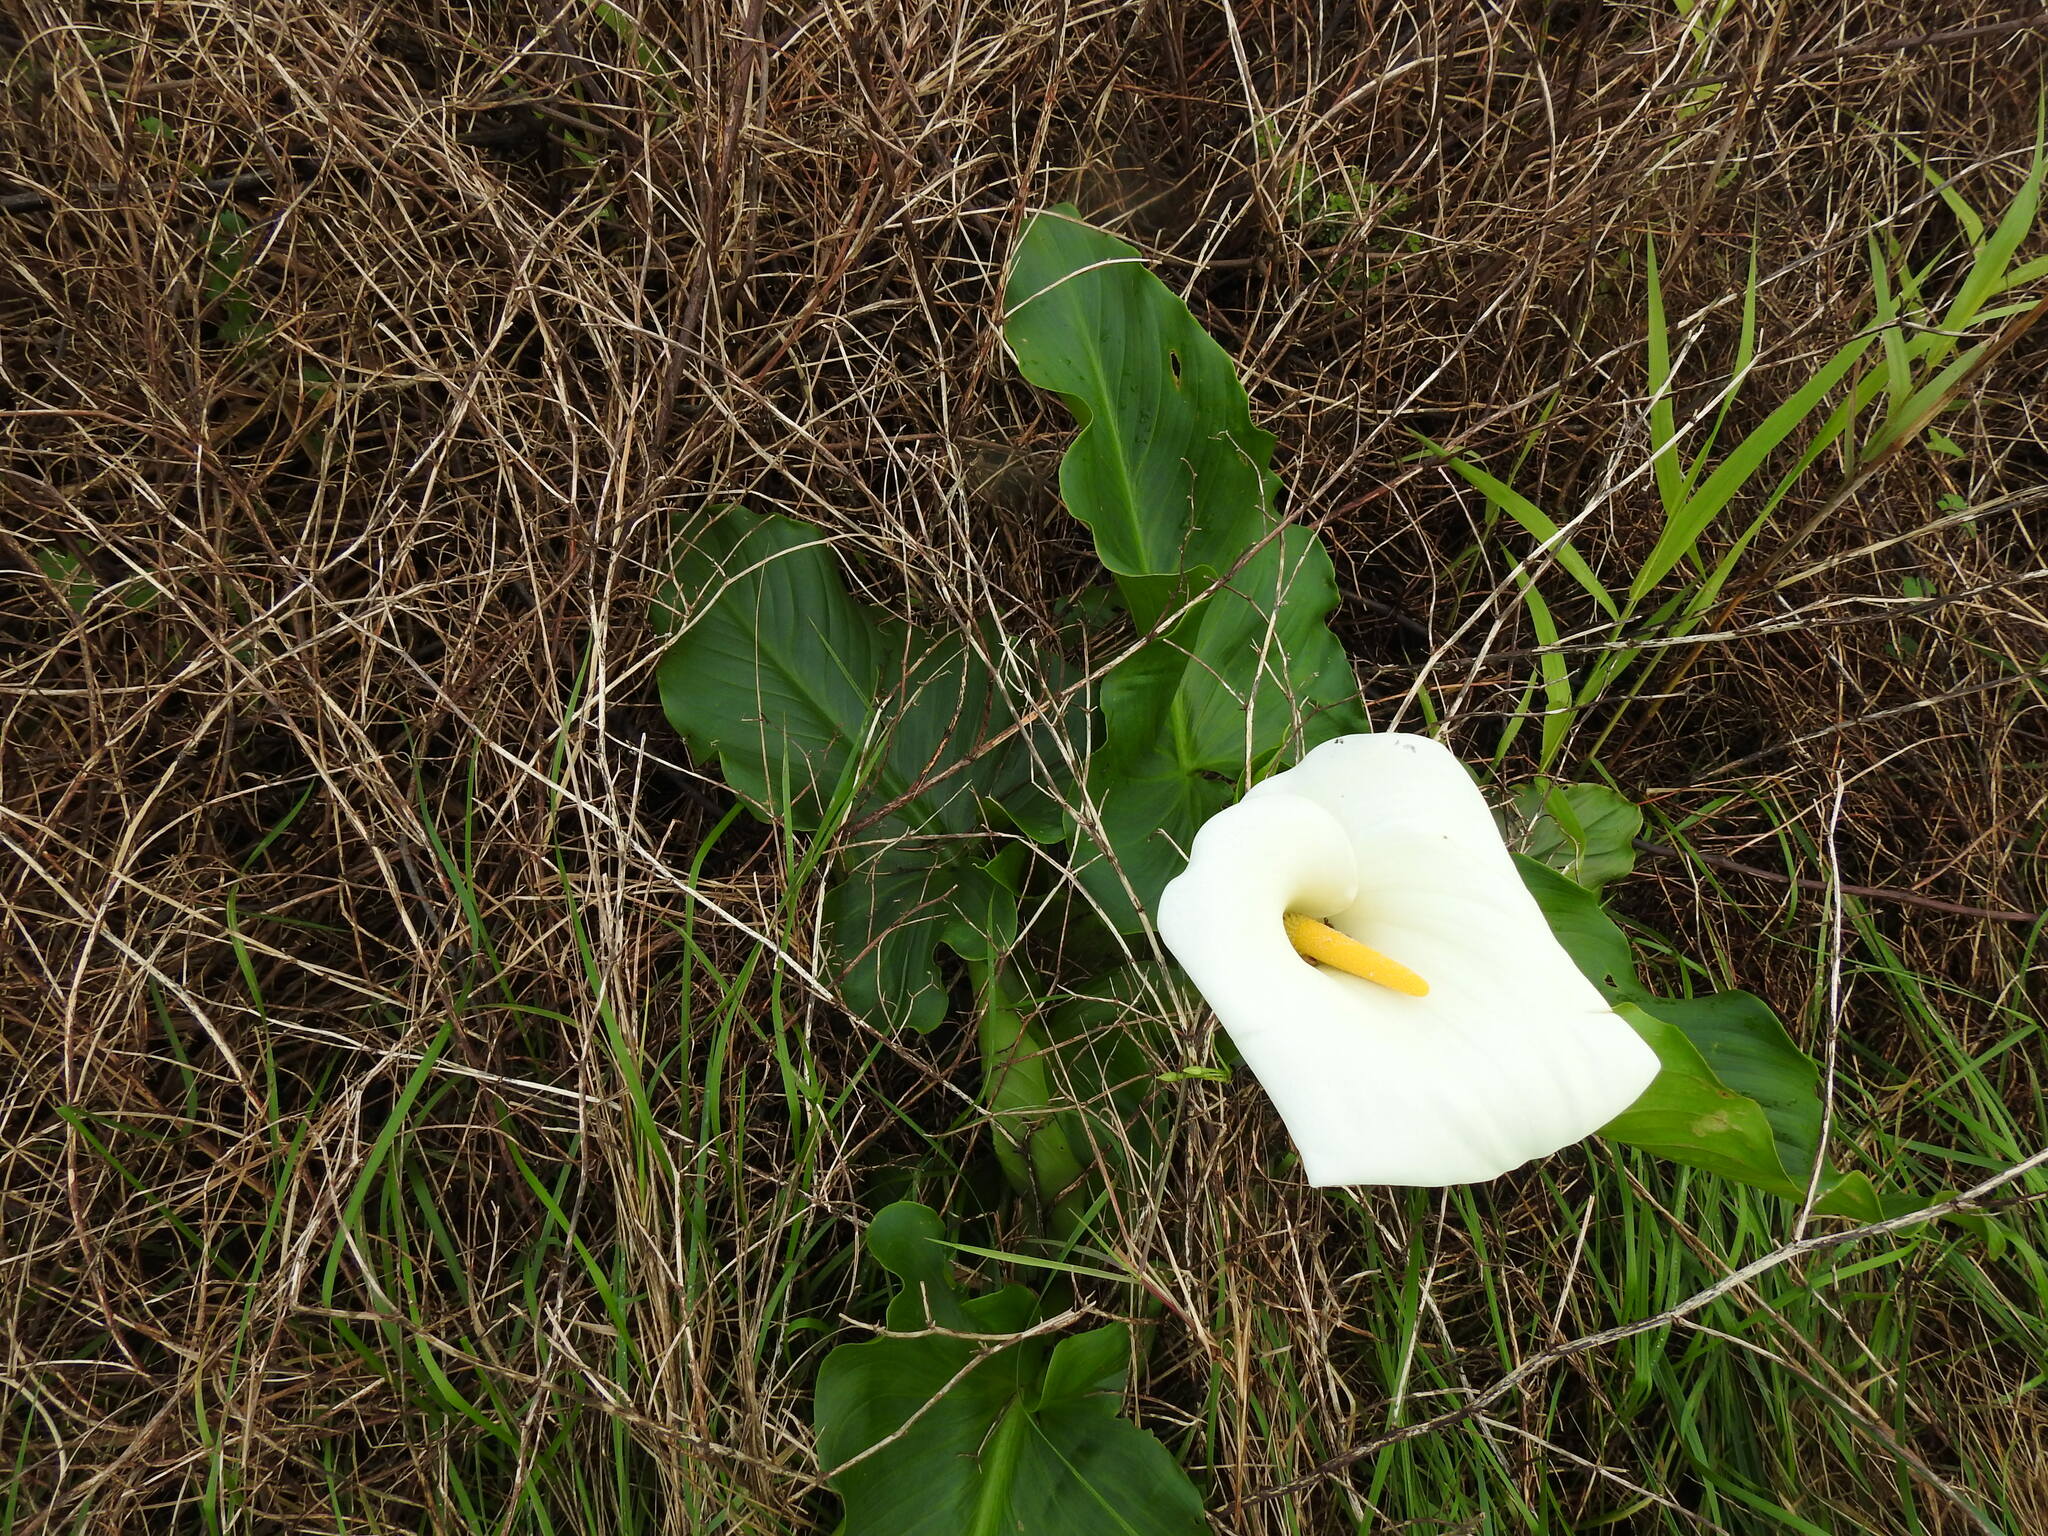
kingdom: Plantae
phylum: Tracheophyta
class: Liliopsida
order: Alismatales
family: Araceae
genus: Zantedeschia
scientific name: Zantedeschia aethiopica
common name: Altar-lily
